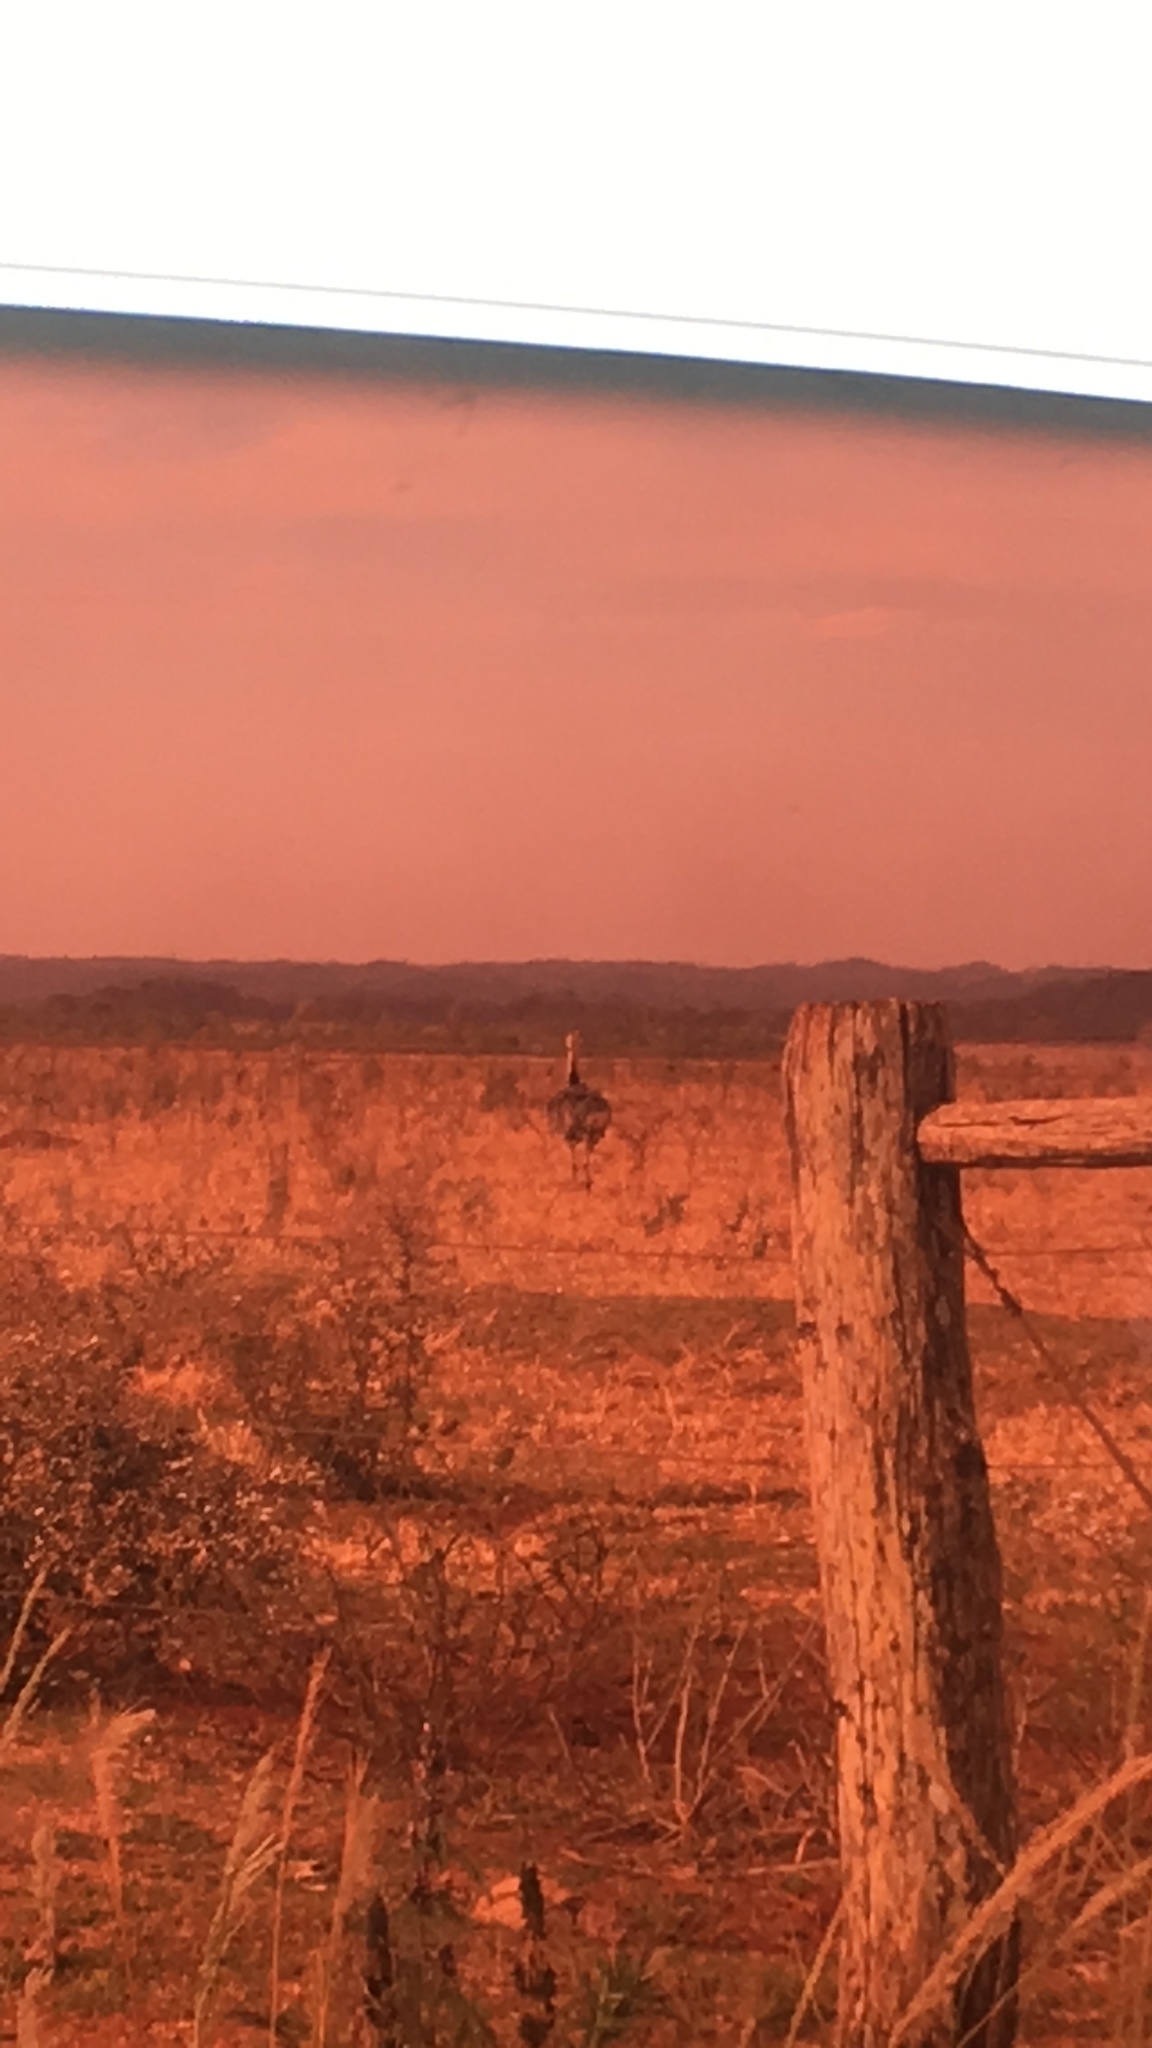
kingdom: Animalia
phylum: Chordata
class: Aves
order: Rheiformes
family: Rheidae
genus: Rhea
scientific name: Rhea americana
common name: Greater rhea
